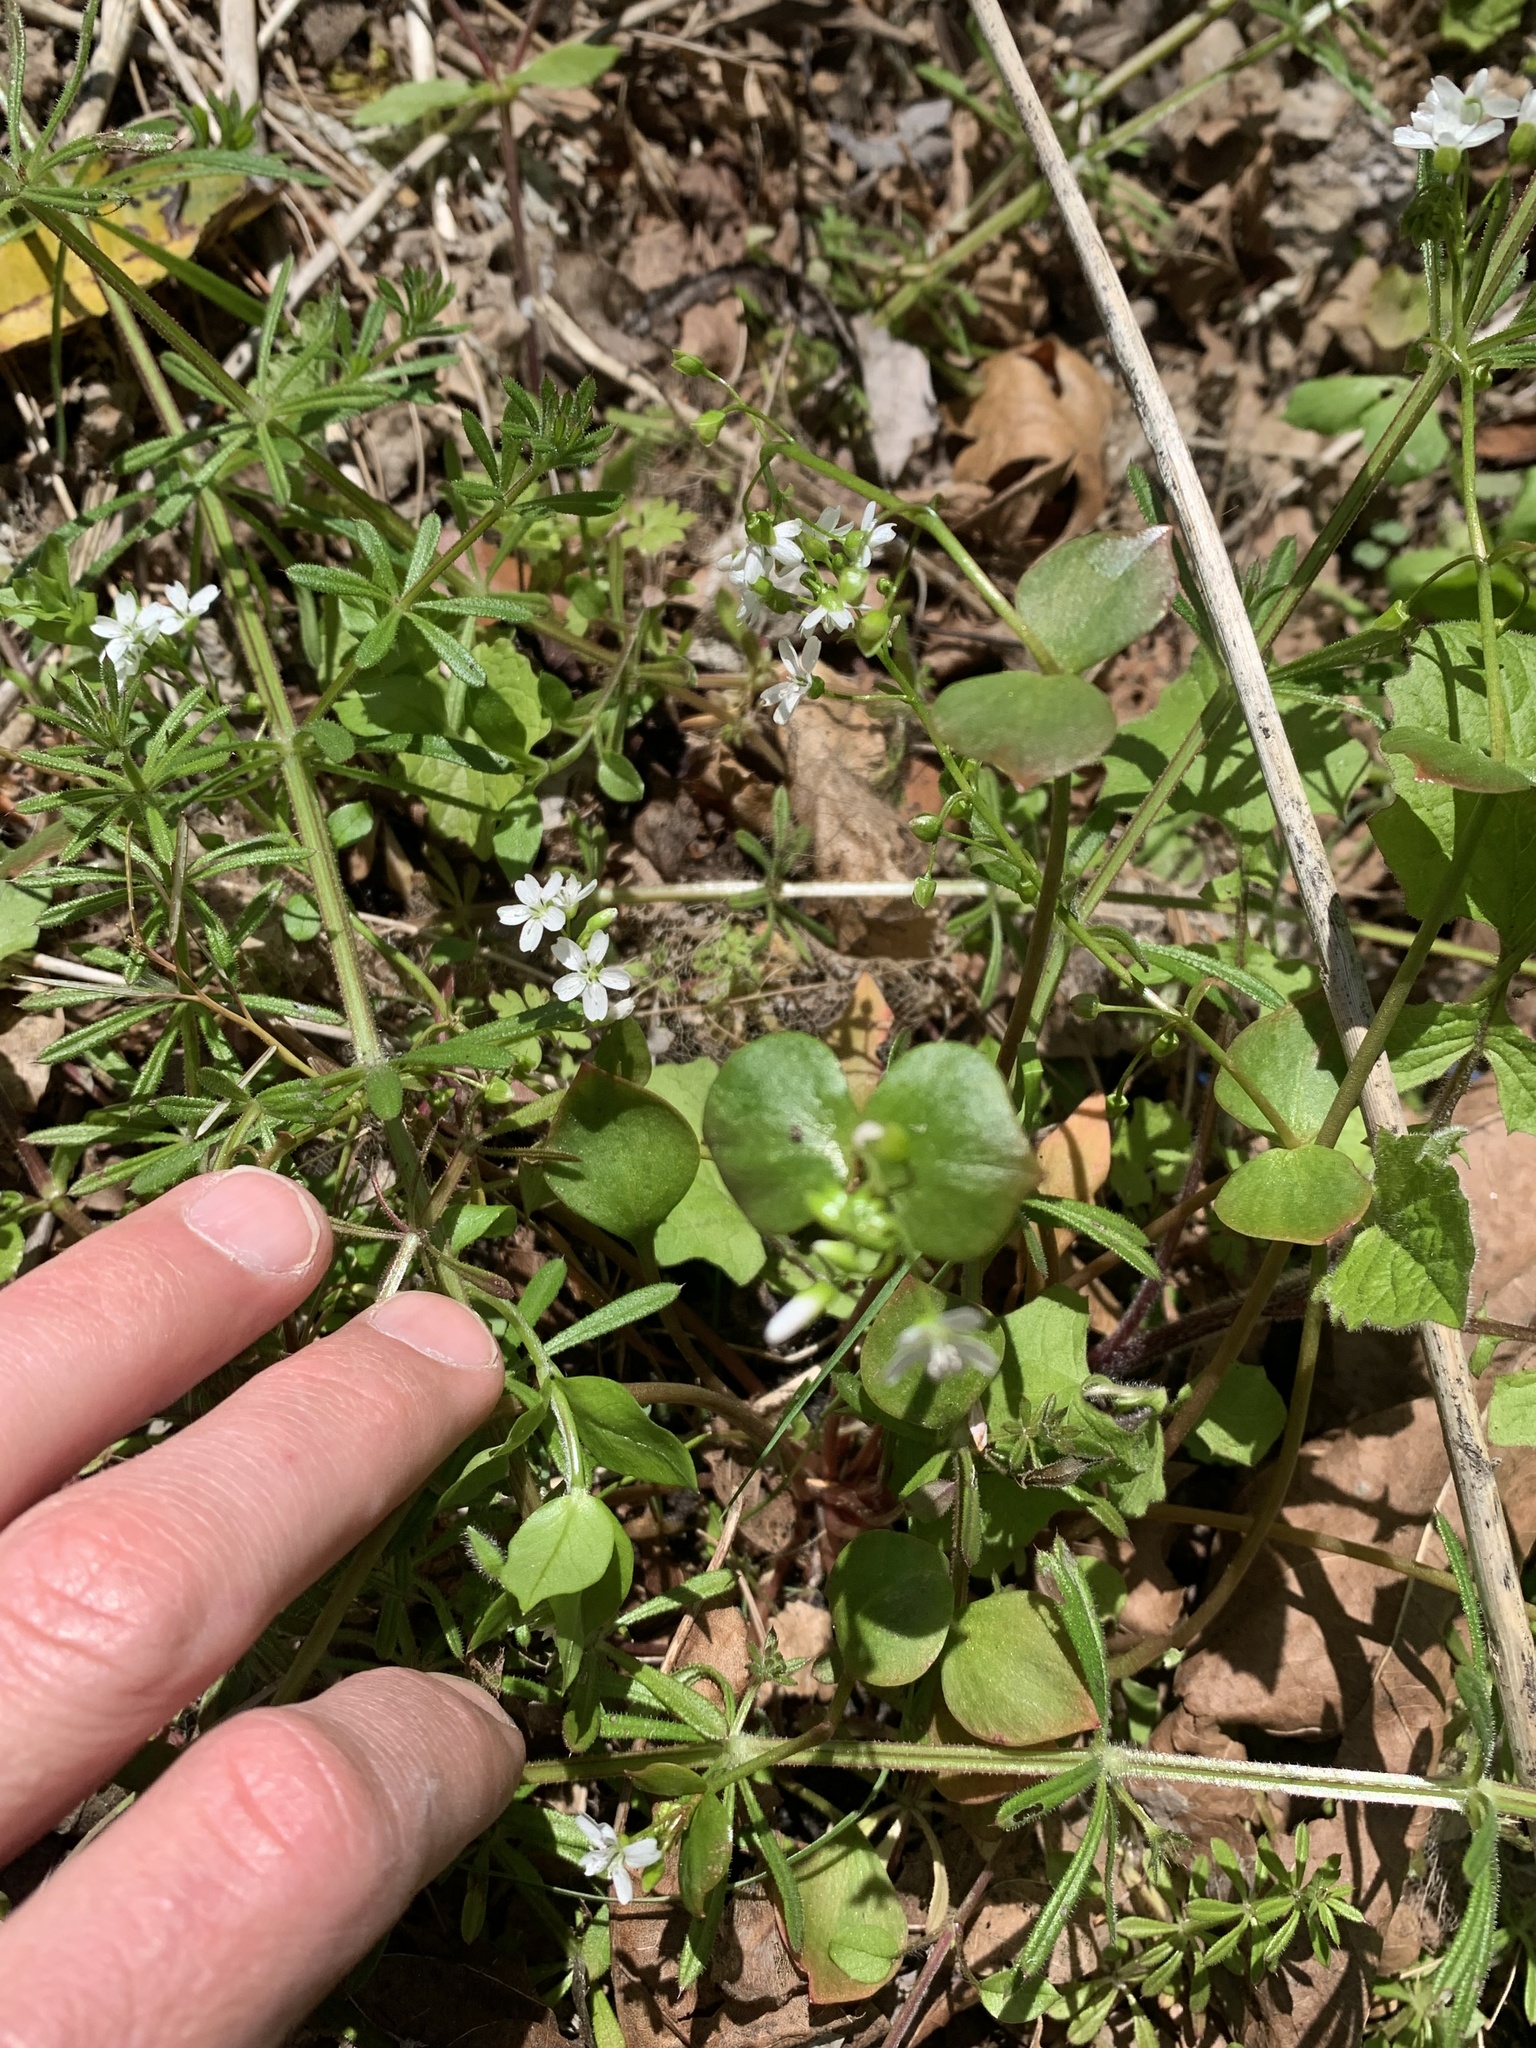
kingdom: Plantae
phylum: Tracheophyta
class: Magnoliopsida
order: Caryophyllales
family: Montiaceae
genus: Claytonia
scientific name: Claytonia washingtoniana
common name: Lake washington claytonia
